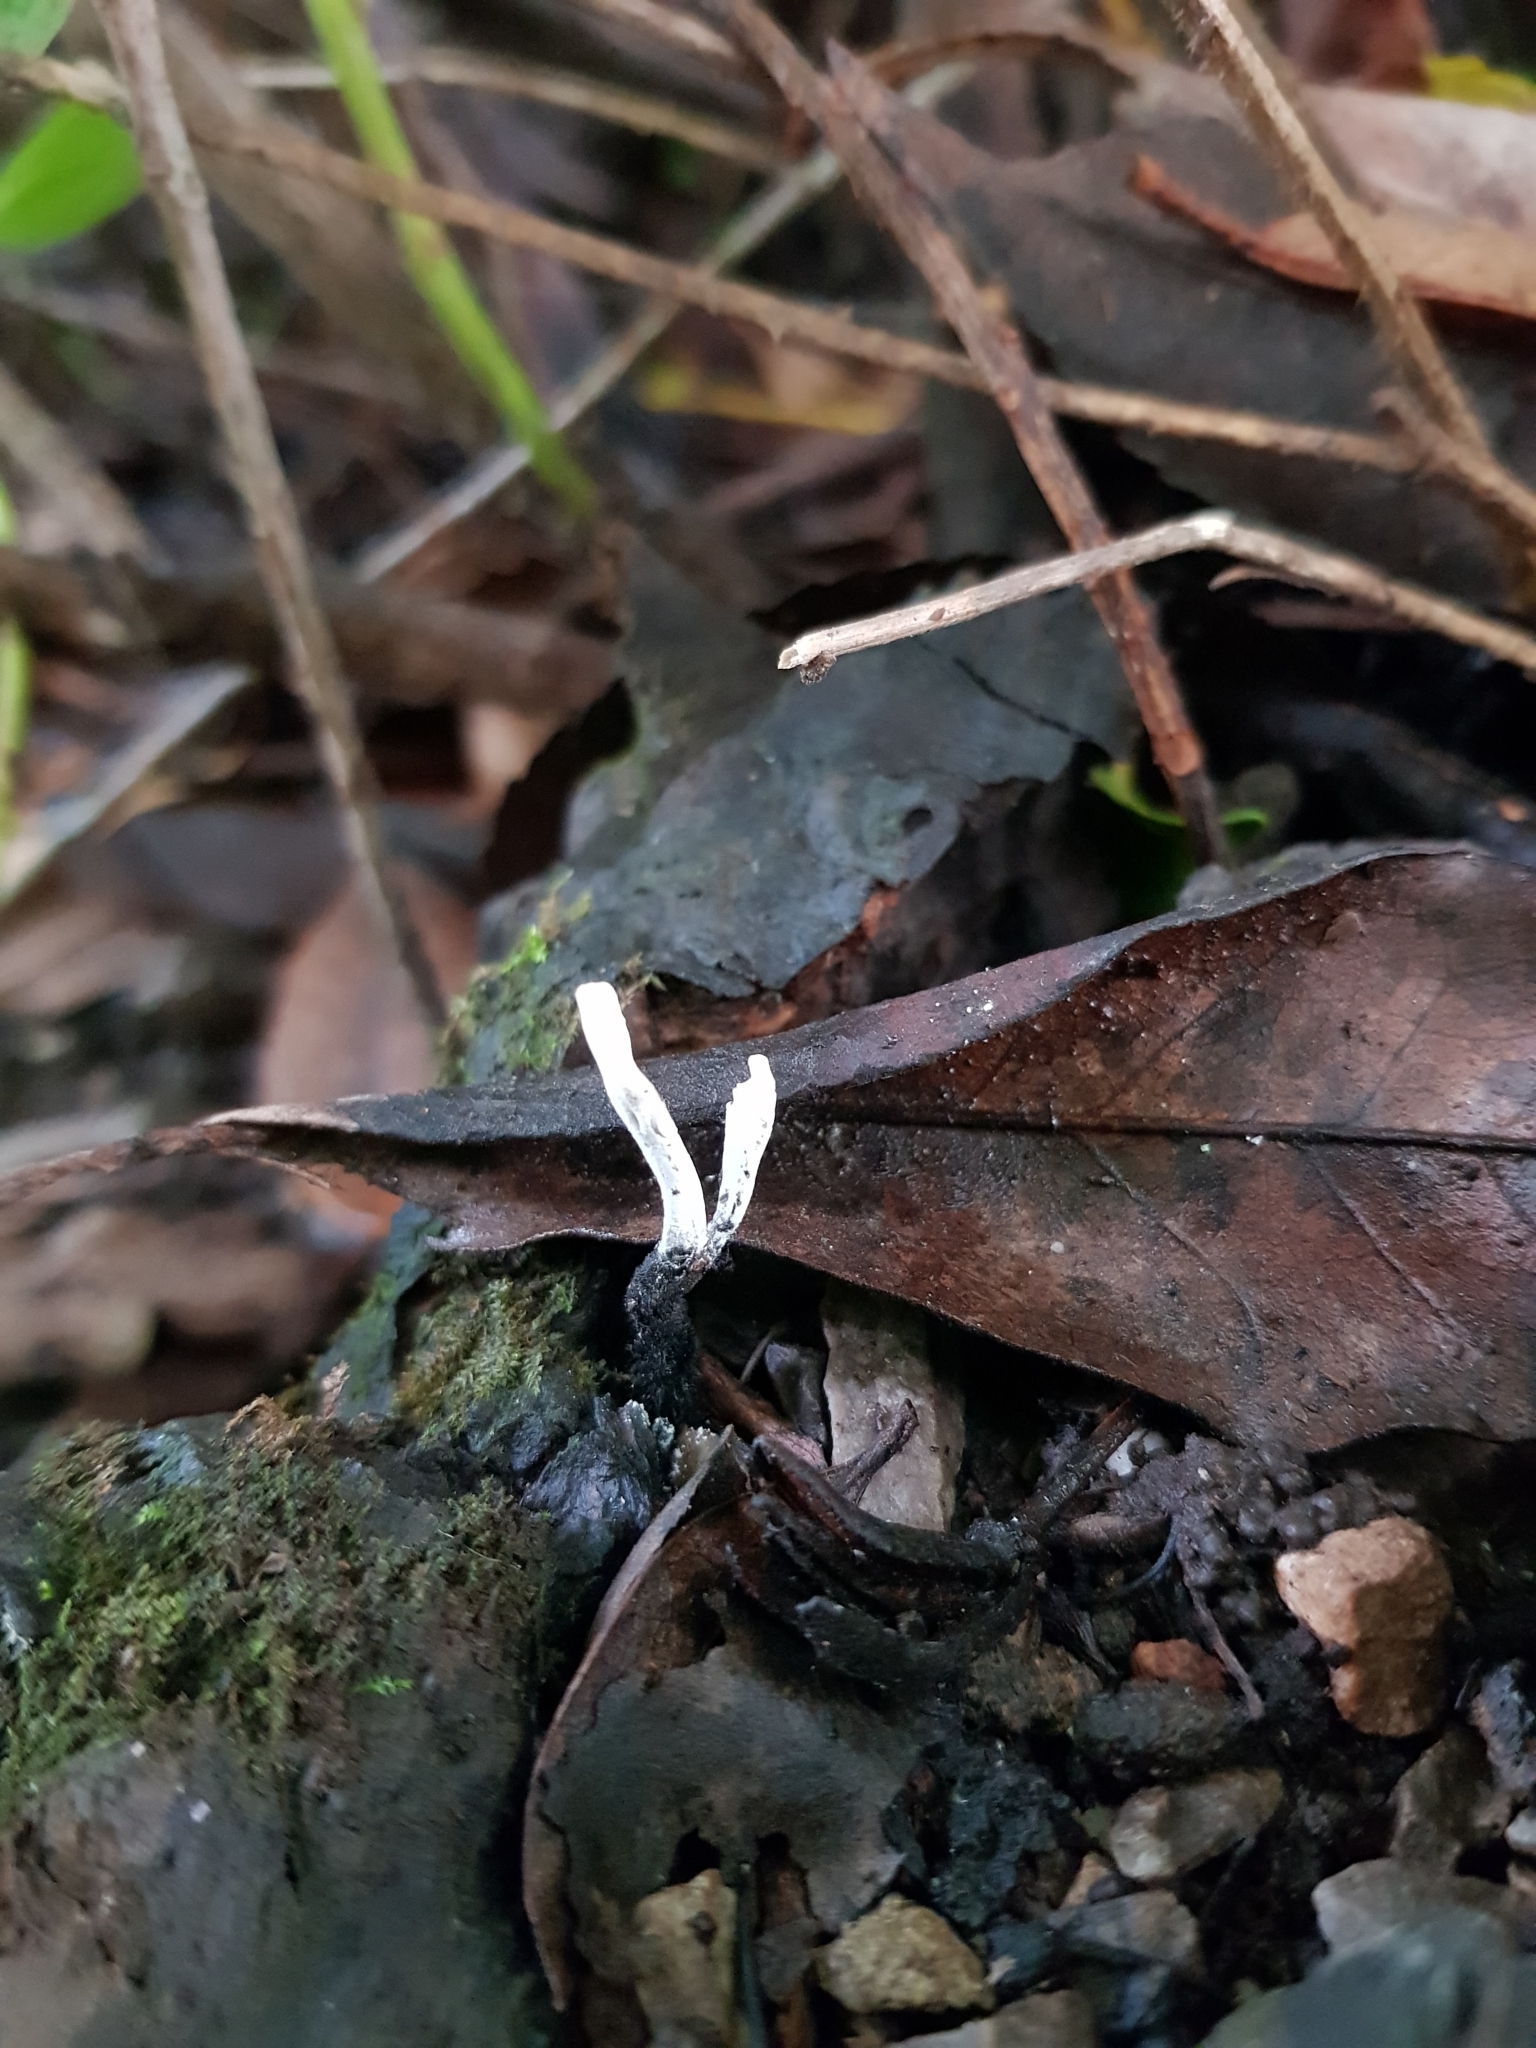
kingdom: Fungi
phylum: Ascomycota
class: Sordariomycetes
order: Xylariales
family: Xylariaceae
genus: Xylaria
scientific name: Xylaria hypoxylon
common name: Candle-snuff fungus
